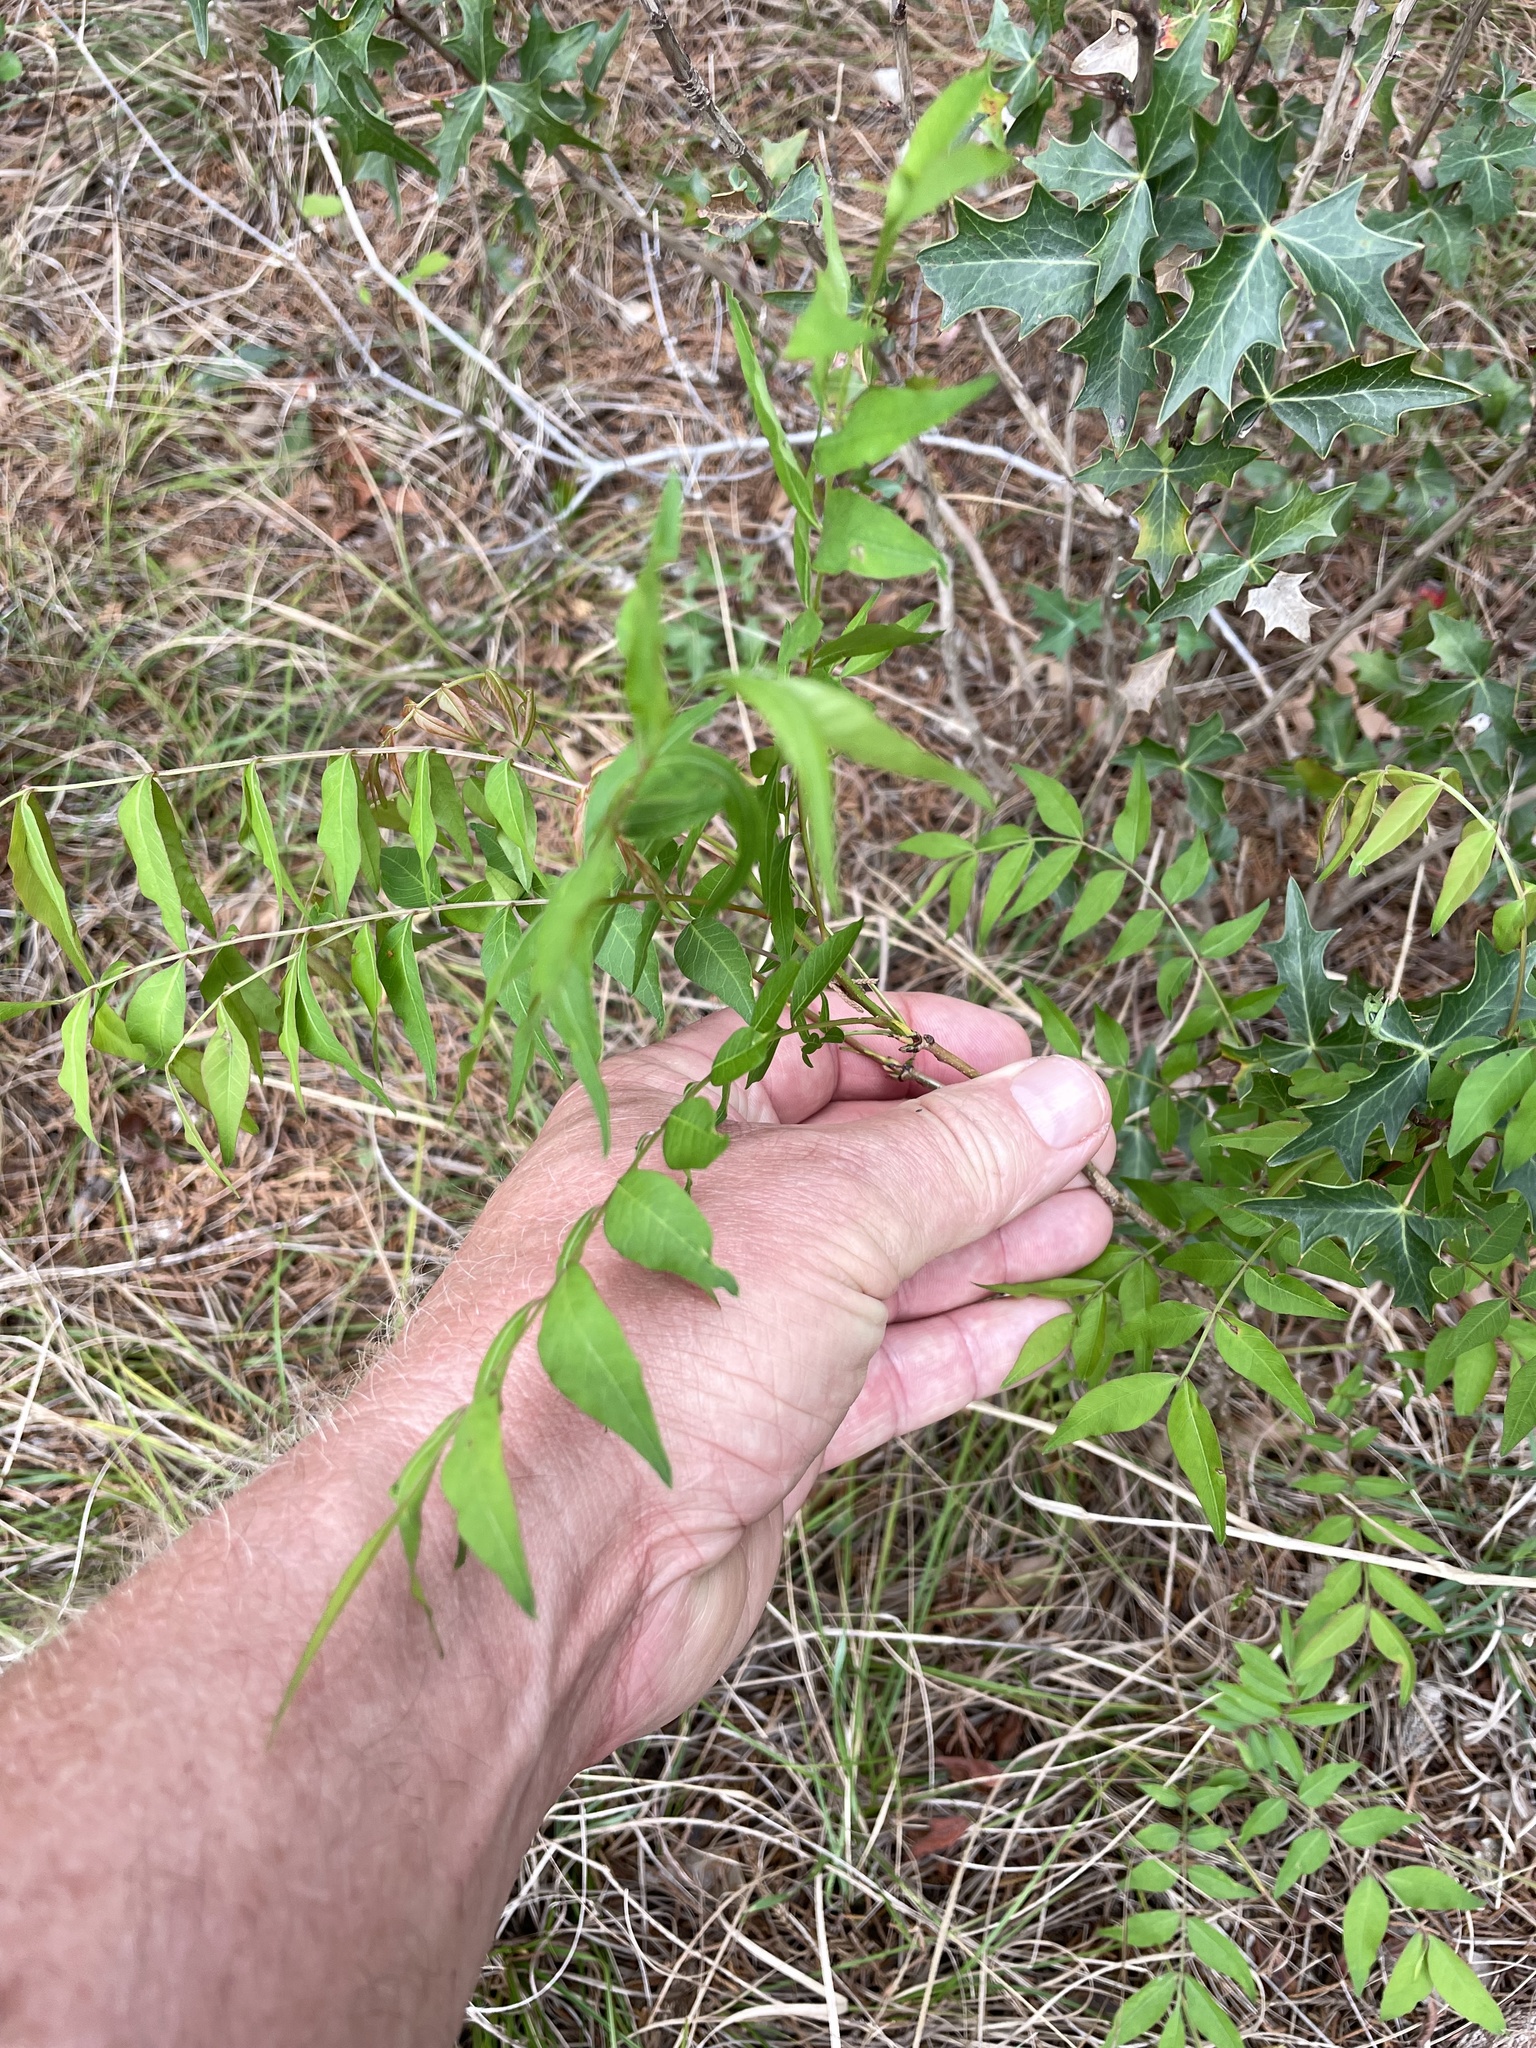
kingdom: Plantae
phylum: Tracheophyta
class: Magnoliopsida
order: Sapindales
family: Anacardiaceae
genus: Pistacia
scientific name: Pistacia chinensis
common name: Chinese pistache
